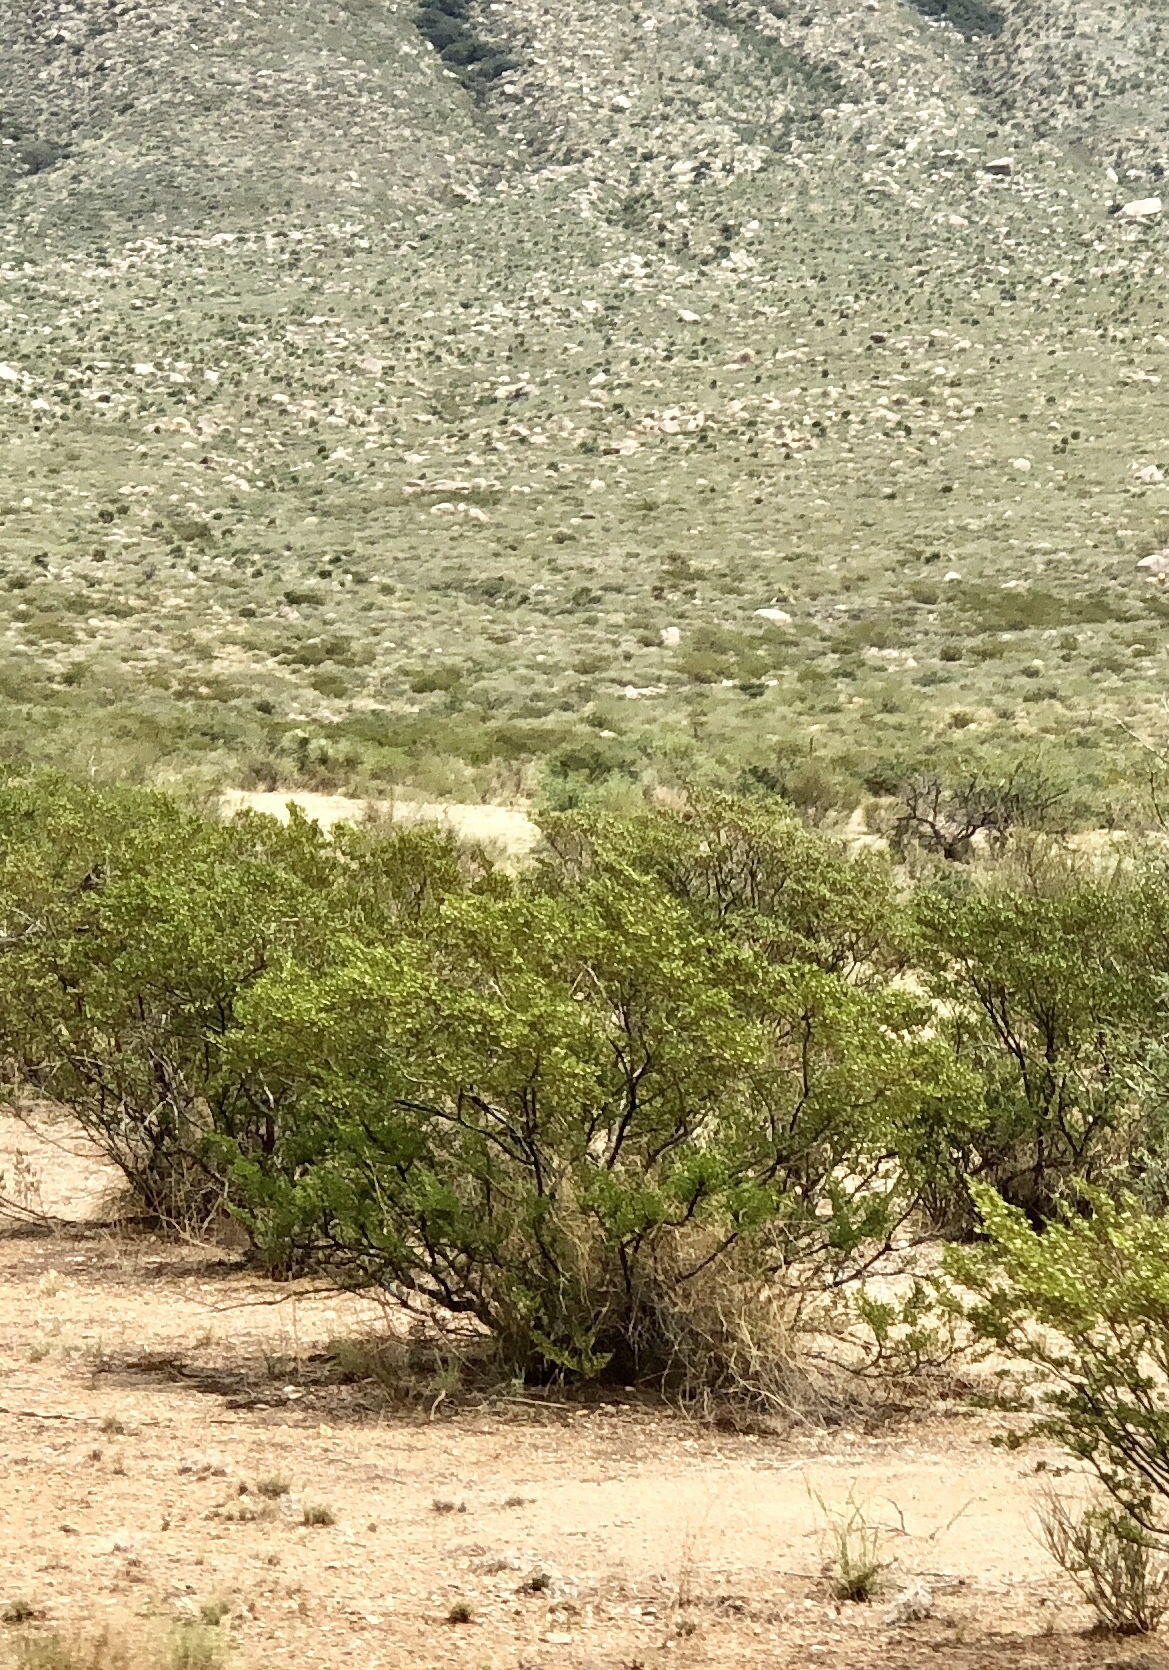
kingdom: Plantae
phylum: Tracheophyta
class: Magnoliopsida
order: Zygophyllales
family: Zygophyllaceae
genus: Larrea
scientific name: Larrea tridentata
